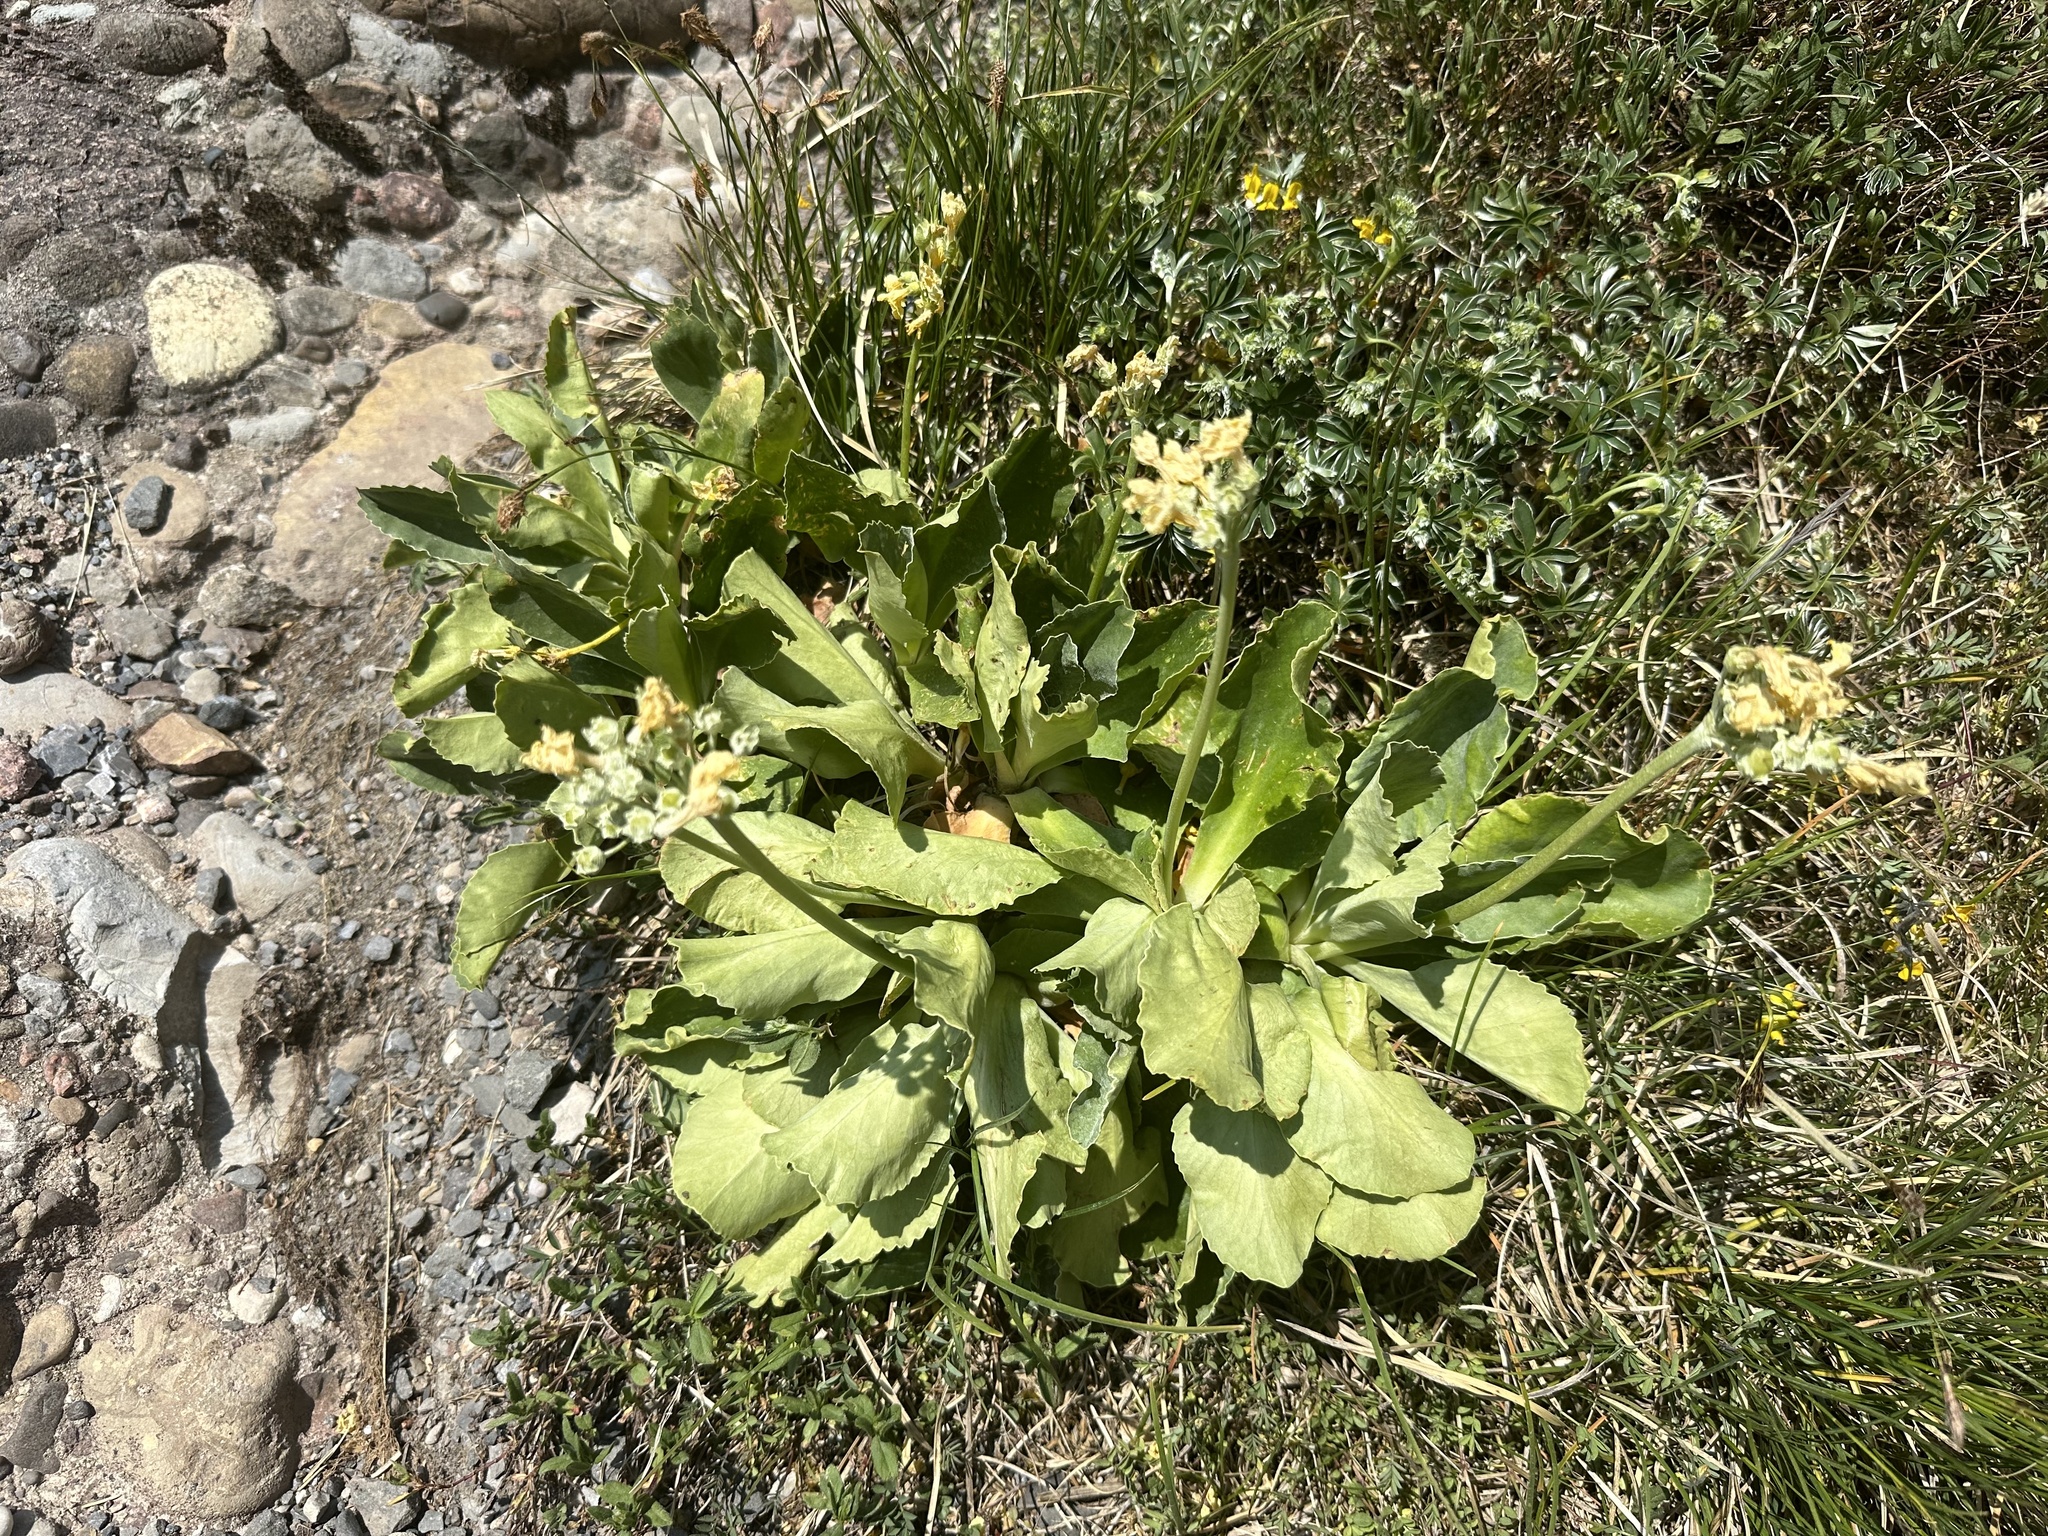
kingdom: Plantae
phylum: Tracheophyta
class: Magnoliopsida
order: Ericales
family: Primulaceae
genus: Primula
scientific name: Primula auricula
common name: Auricula
